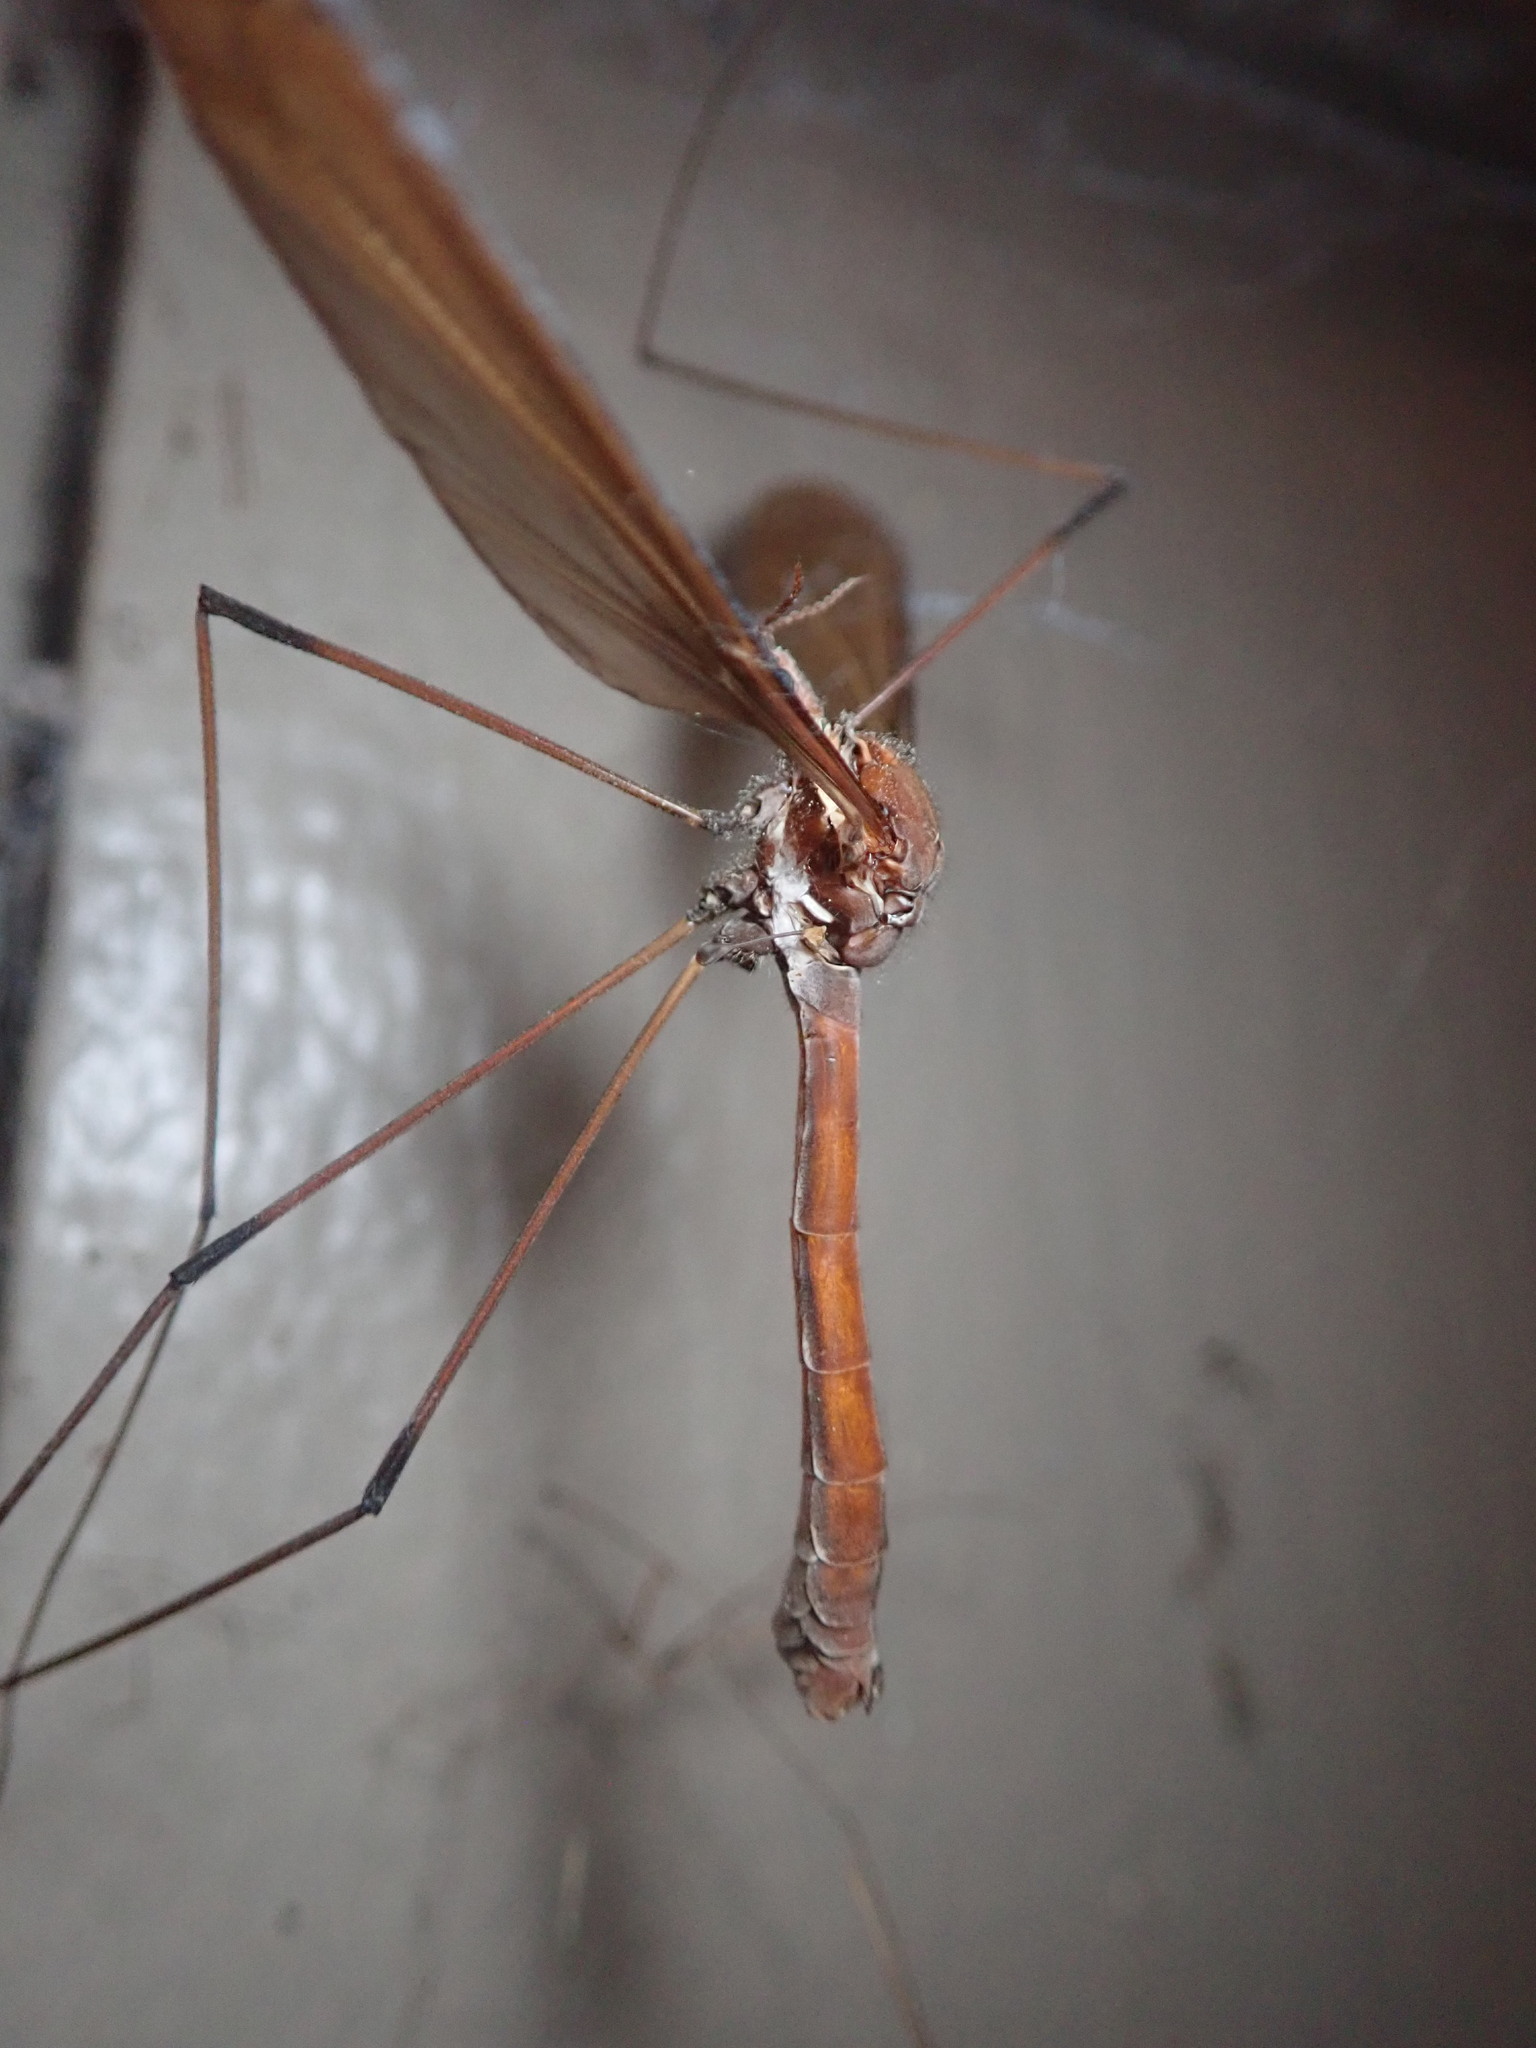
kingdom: Animalia
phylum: Arthropoda
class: Insecta
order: Diptera
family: Tipulidae
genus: Holorusia
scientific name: Holorusia hespera
